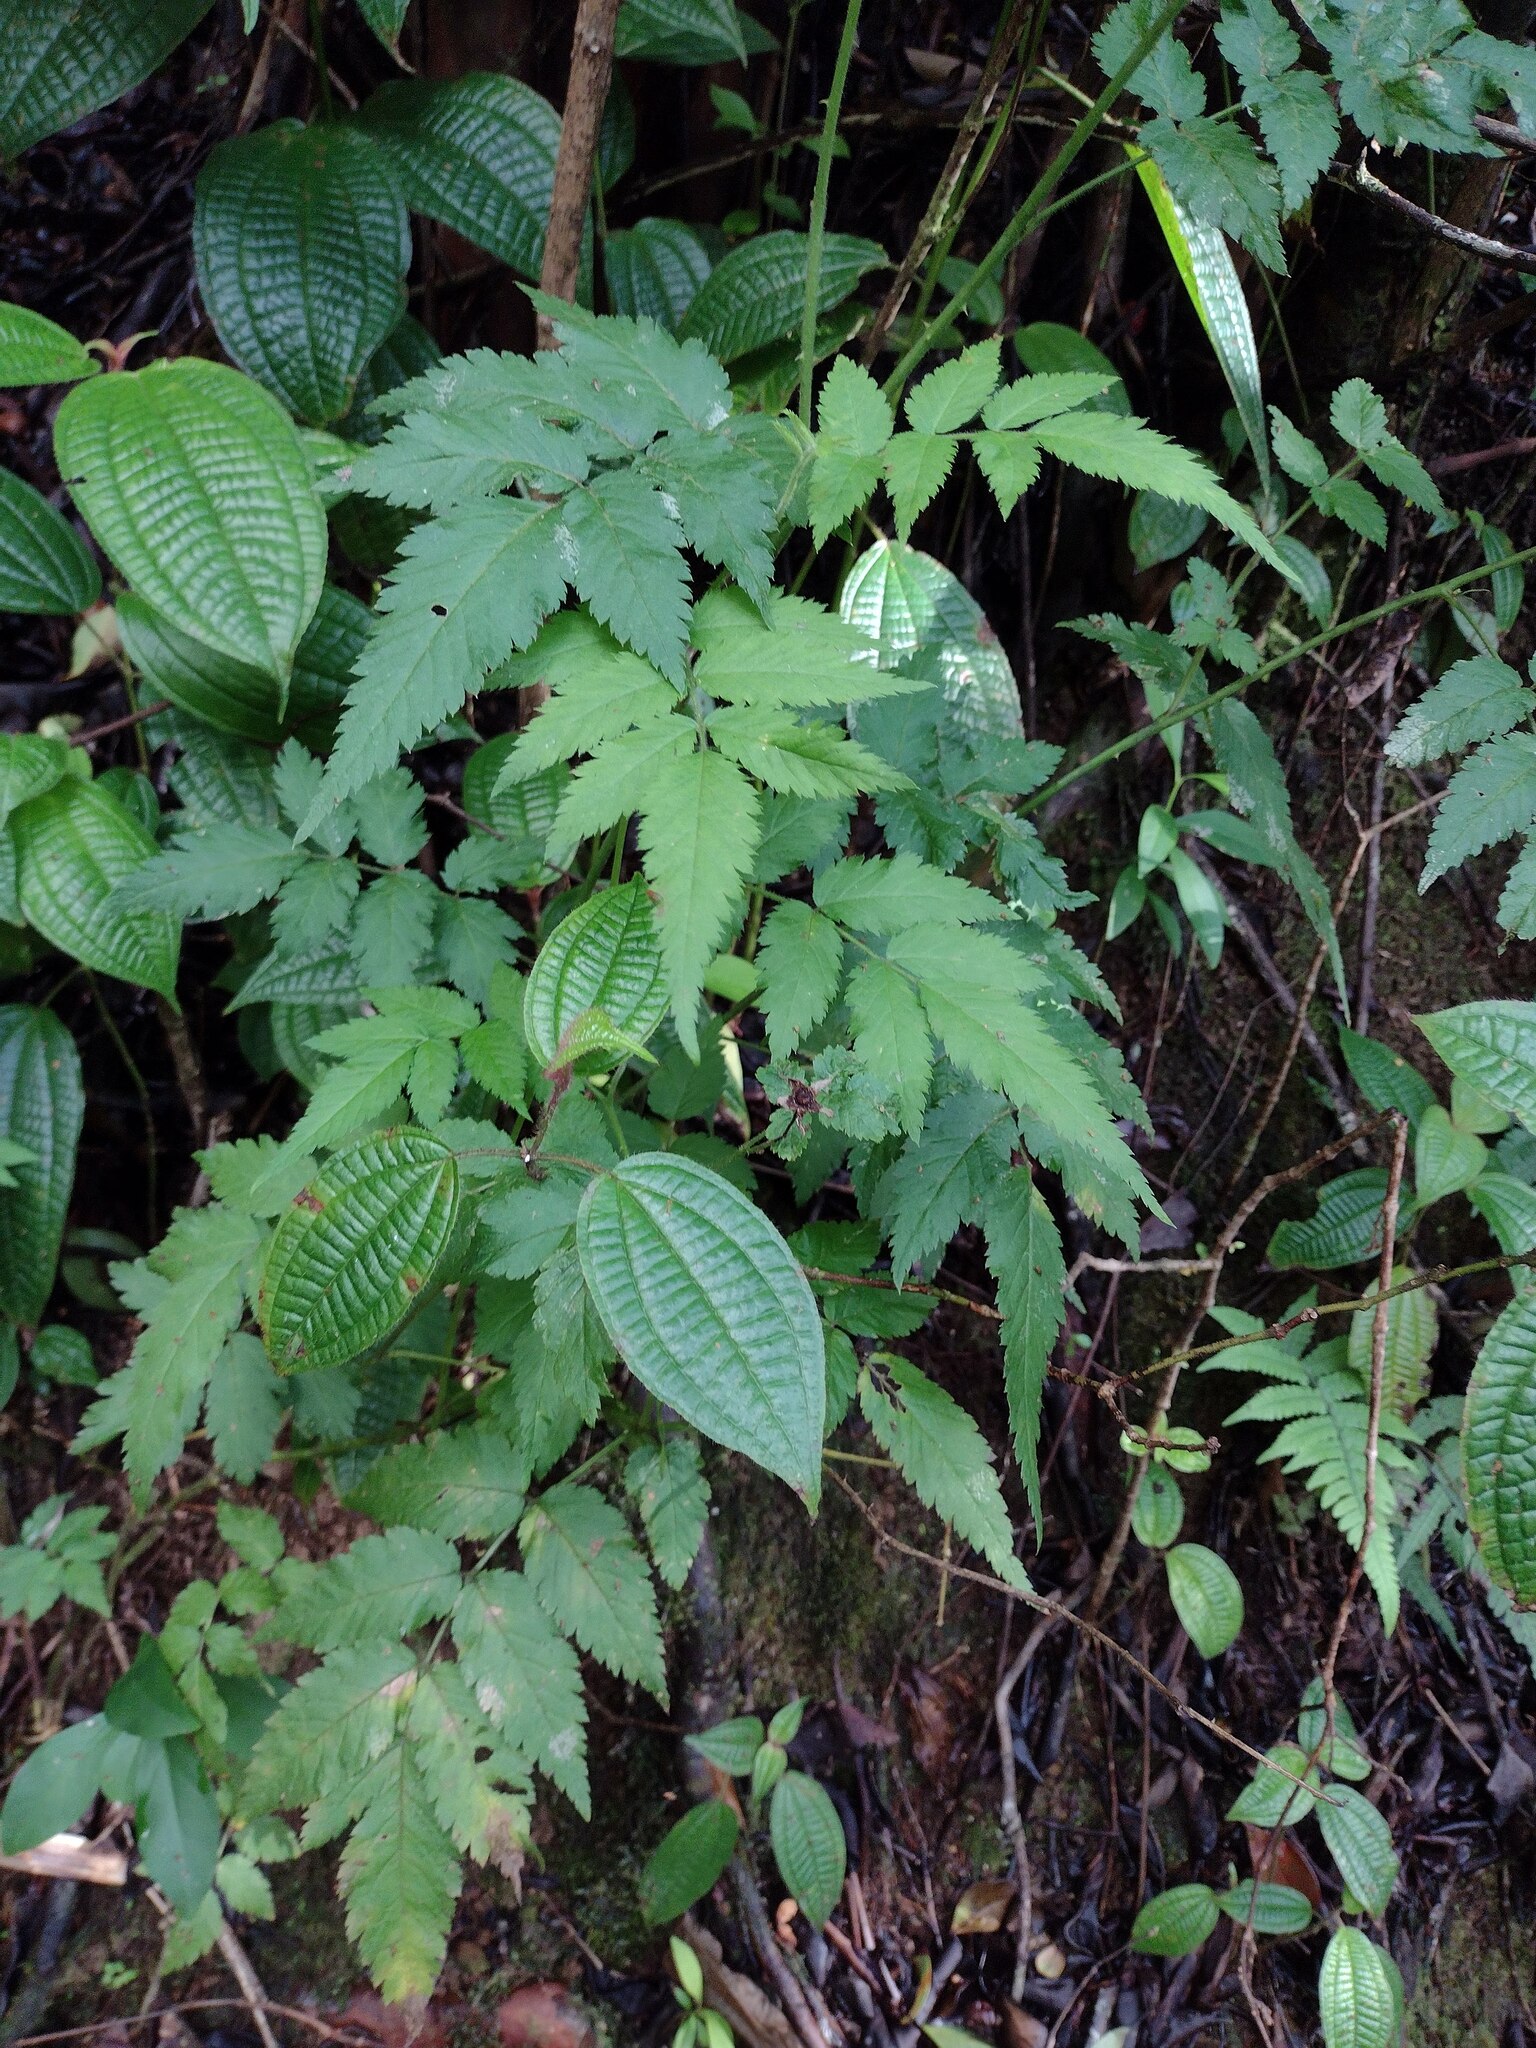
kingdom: Plantae
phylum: Tracheophyta
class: Magnoliopsida
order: Rosales
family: Rosaceae
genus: Rubus
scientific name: Rubus rosifolius
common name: Roseleaf raspberry
